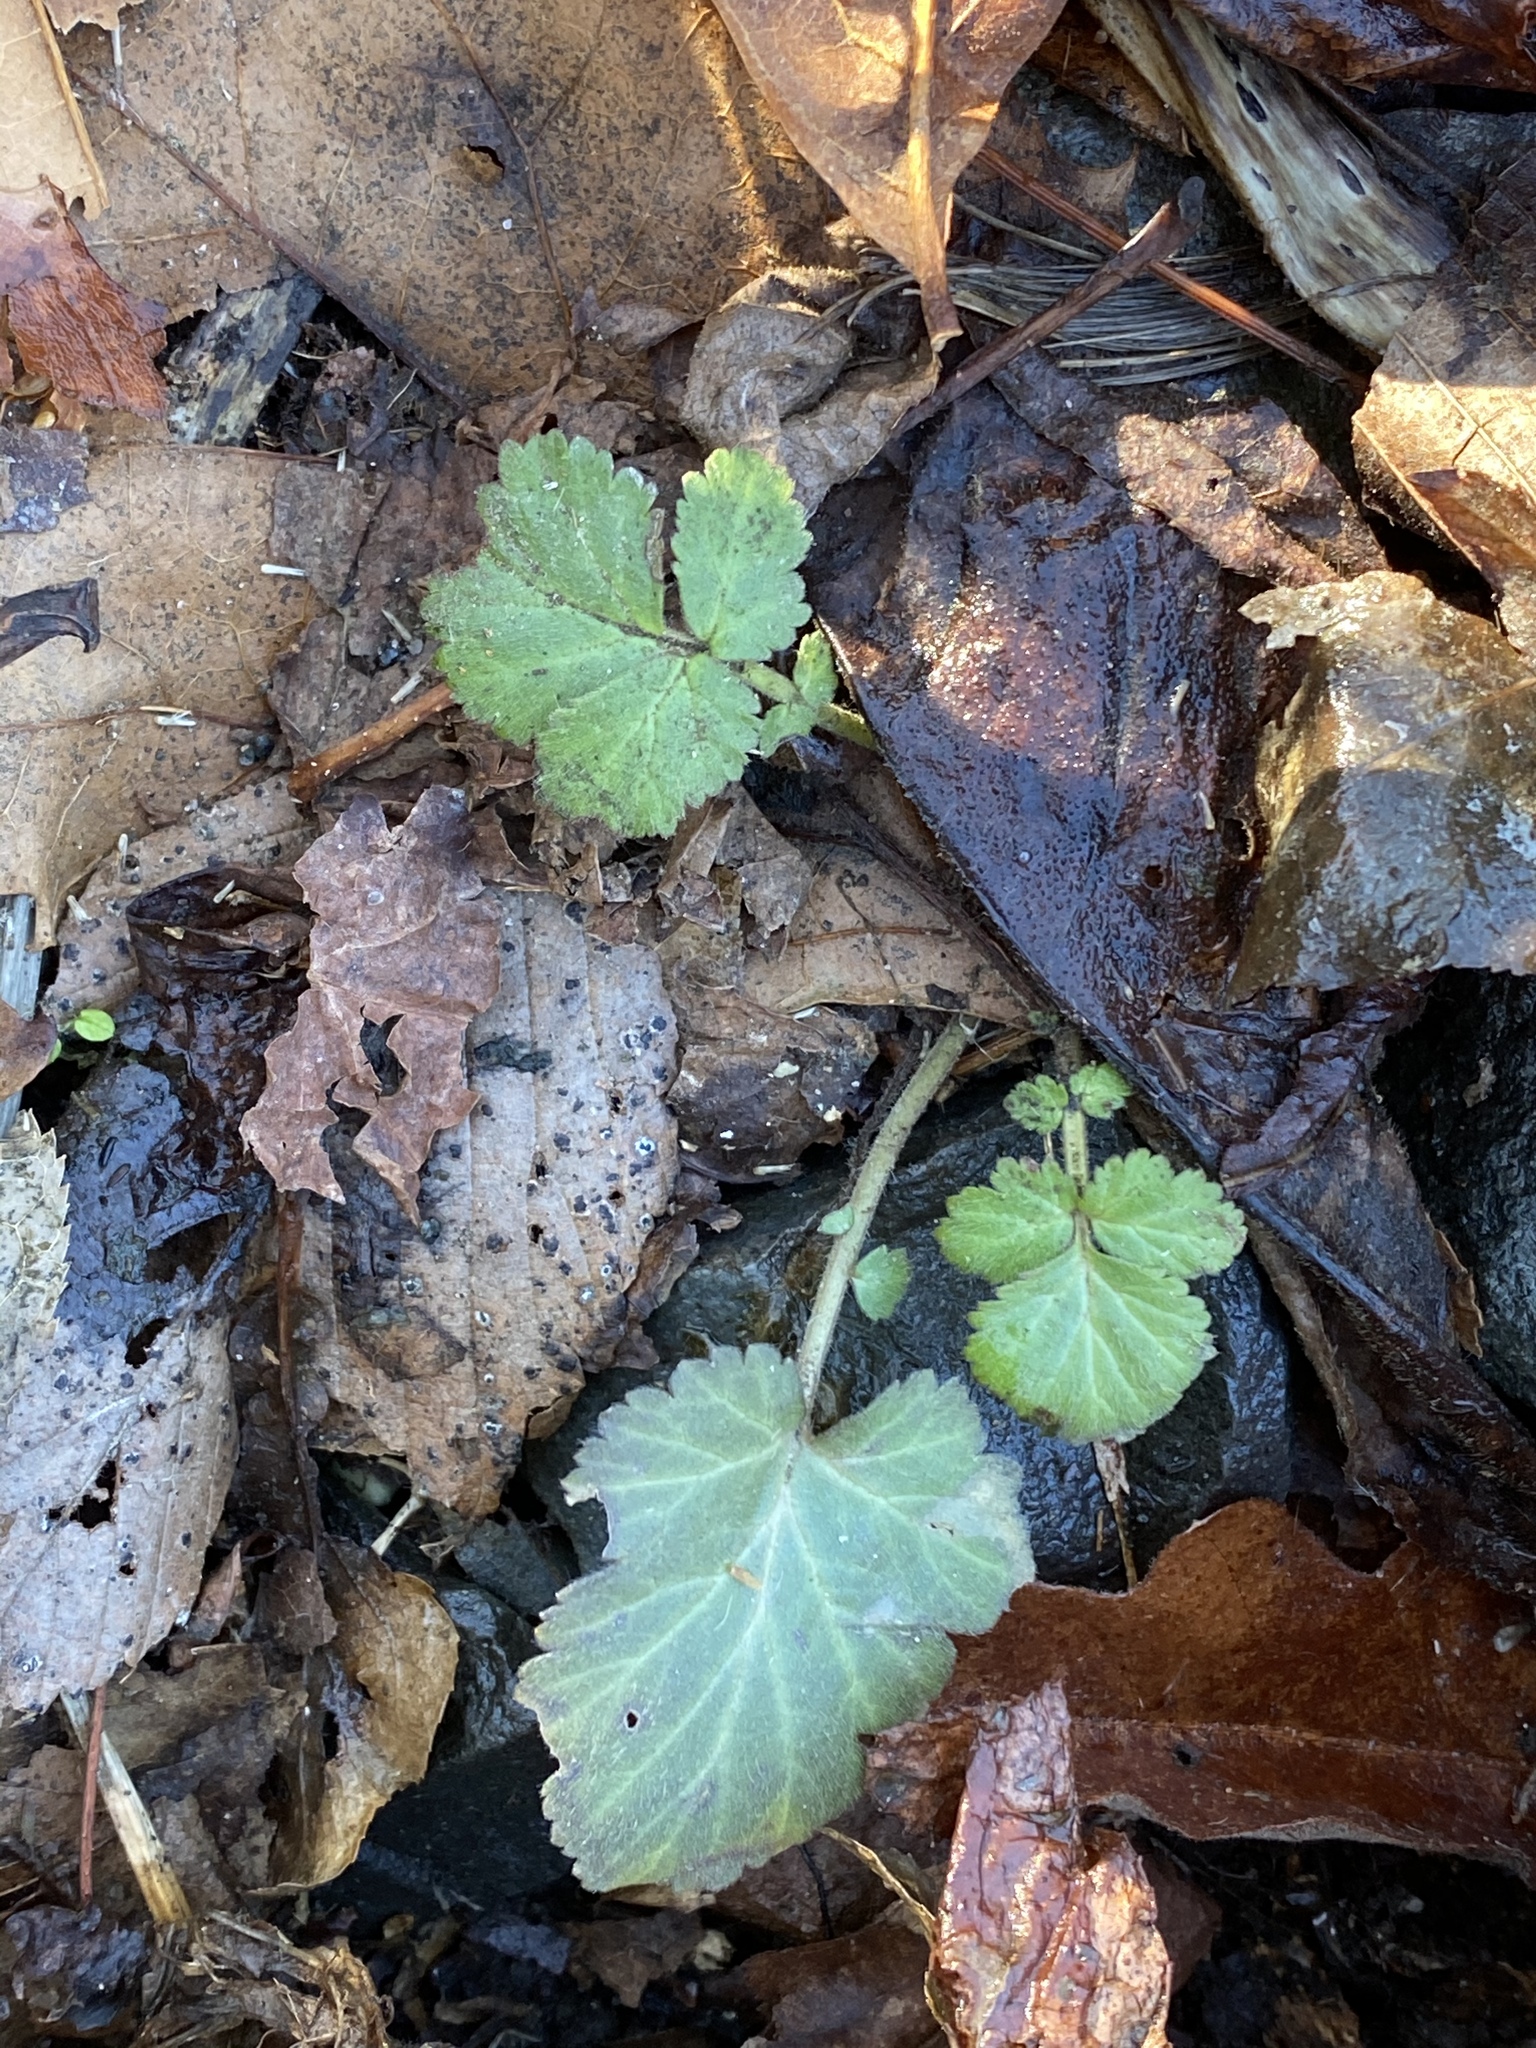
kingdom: Plantae
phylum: Tracheophyta
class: Magnoliopsida
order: Rosales
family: Rosaceae
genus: Geum
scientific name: Geum canadense
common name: White avens
